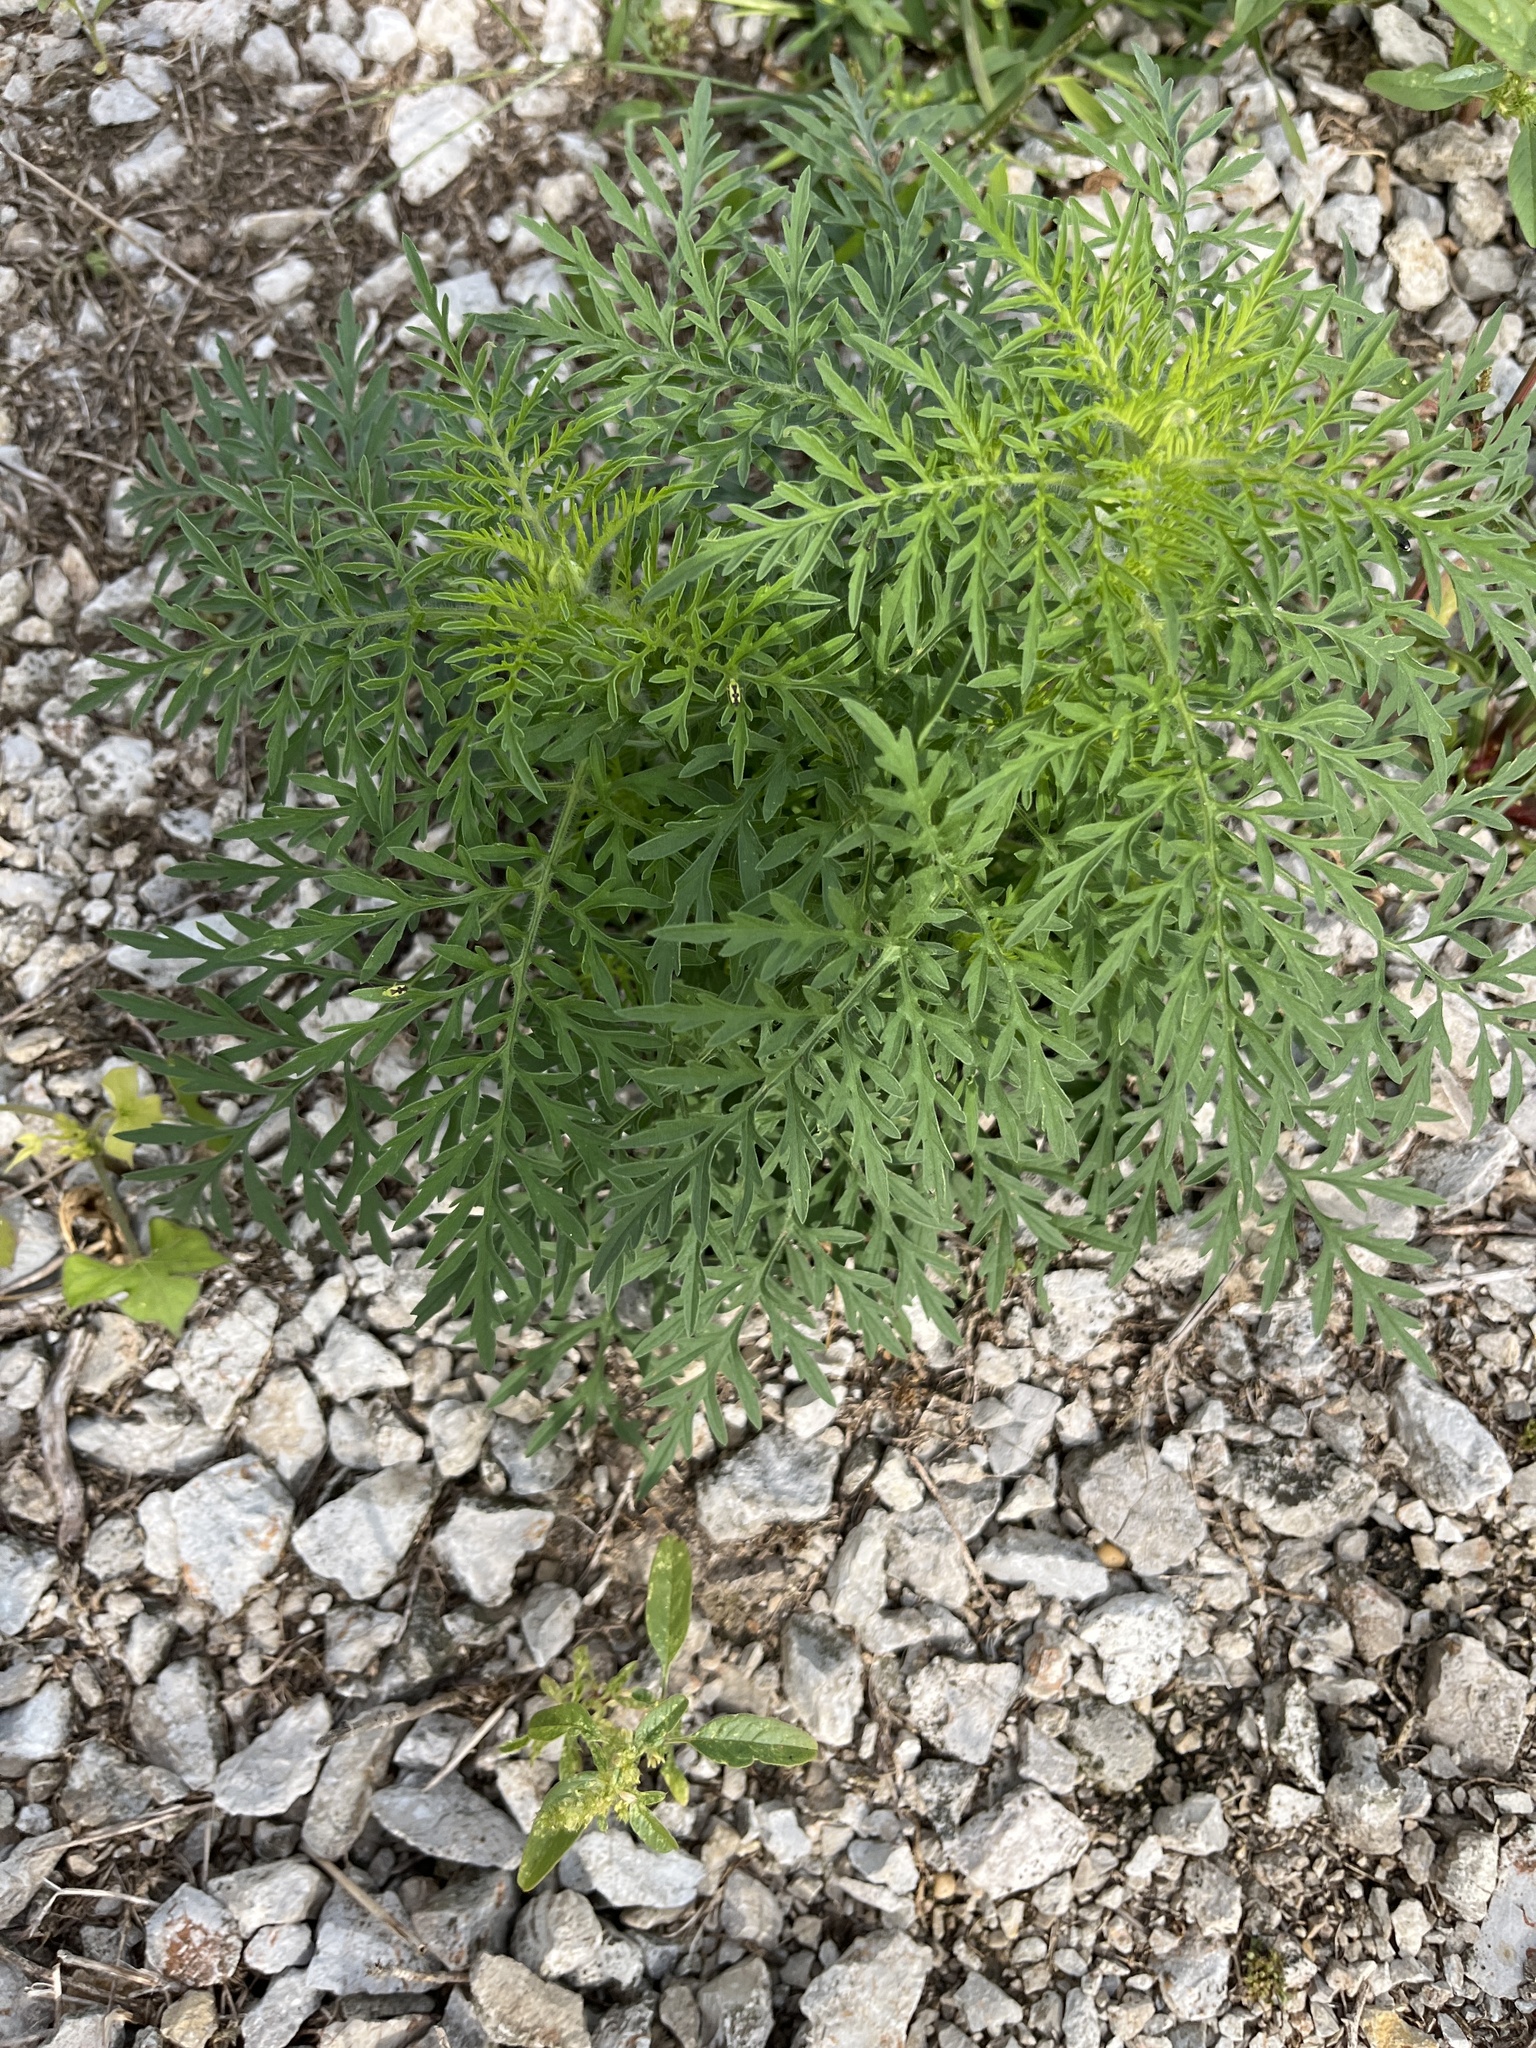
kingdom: Plantae
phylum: Tracheophyta
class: Magnoliopsida
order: Asterales
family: Asteraceae
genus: Ambrosia
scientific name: Ambrosia artemisiifolia
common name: Annual ragweed
